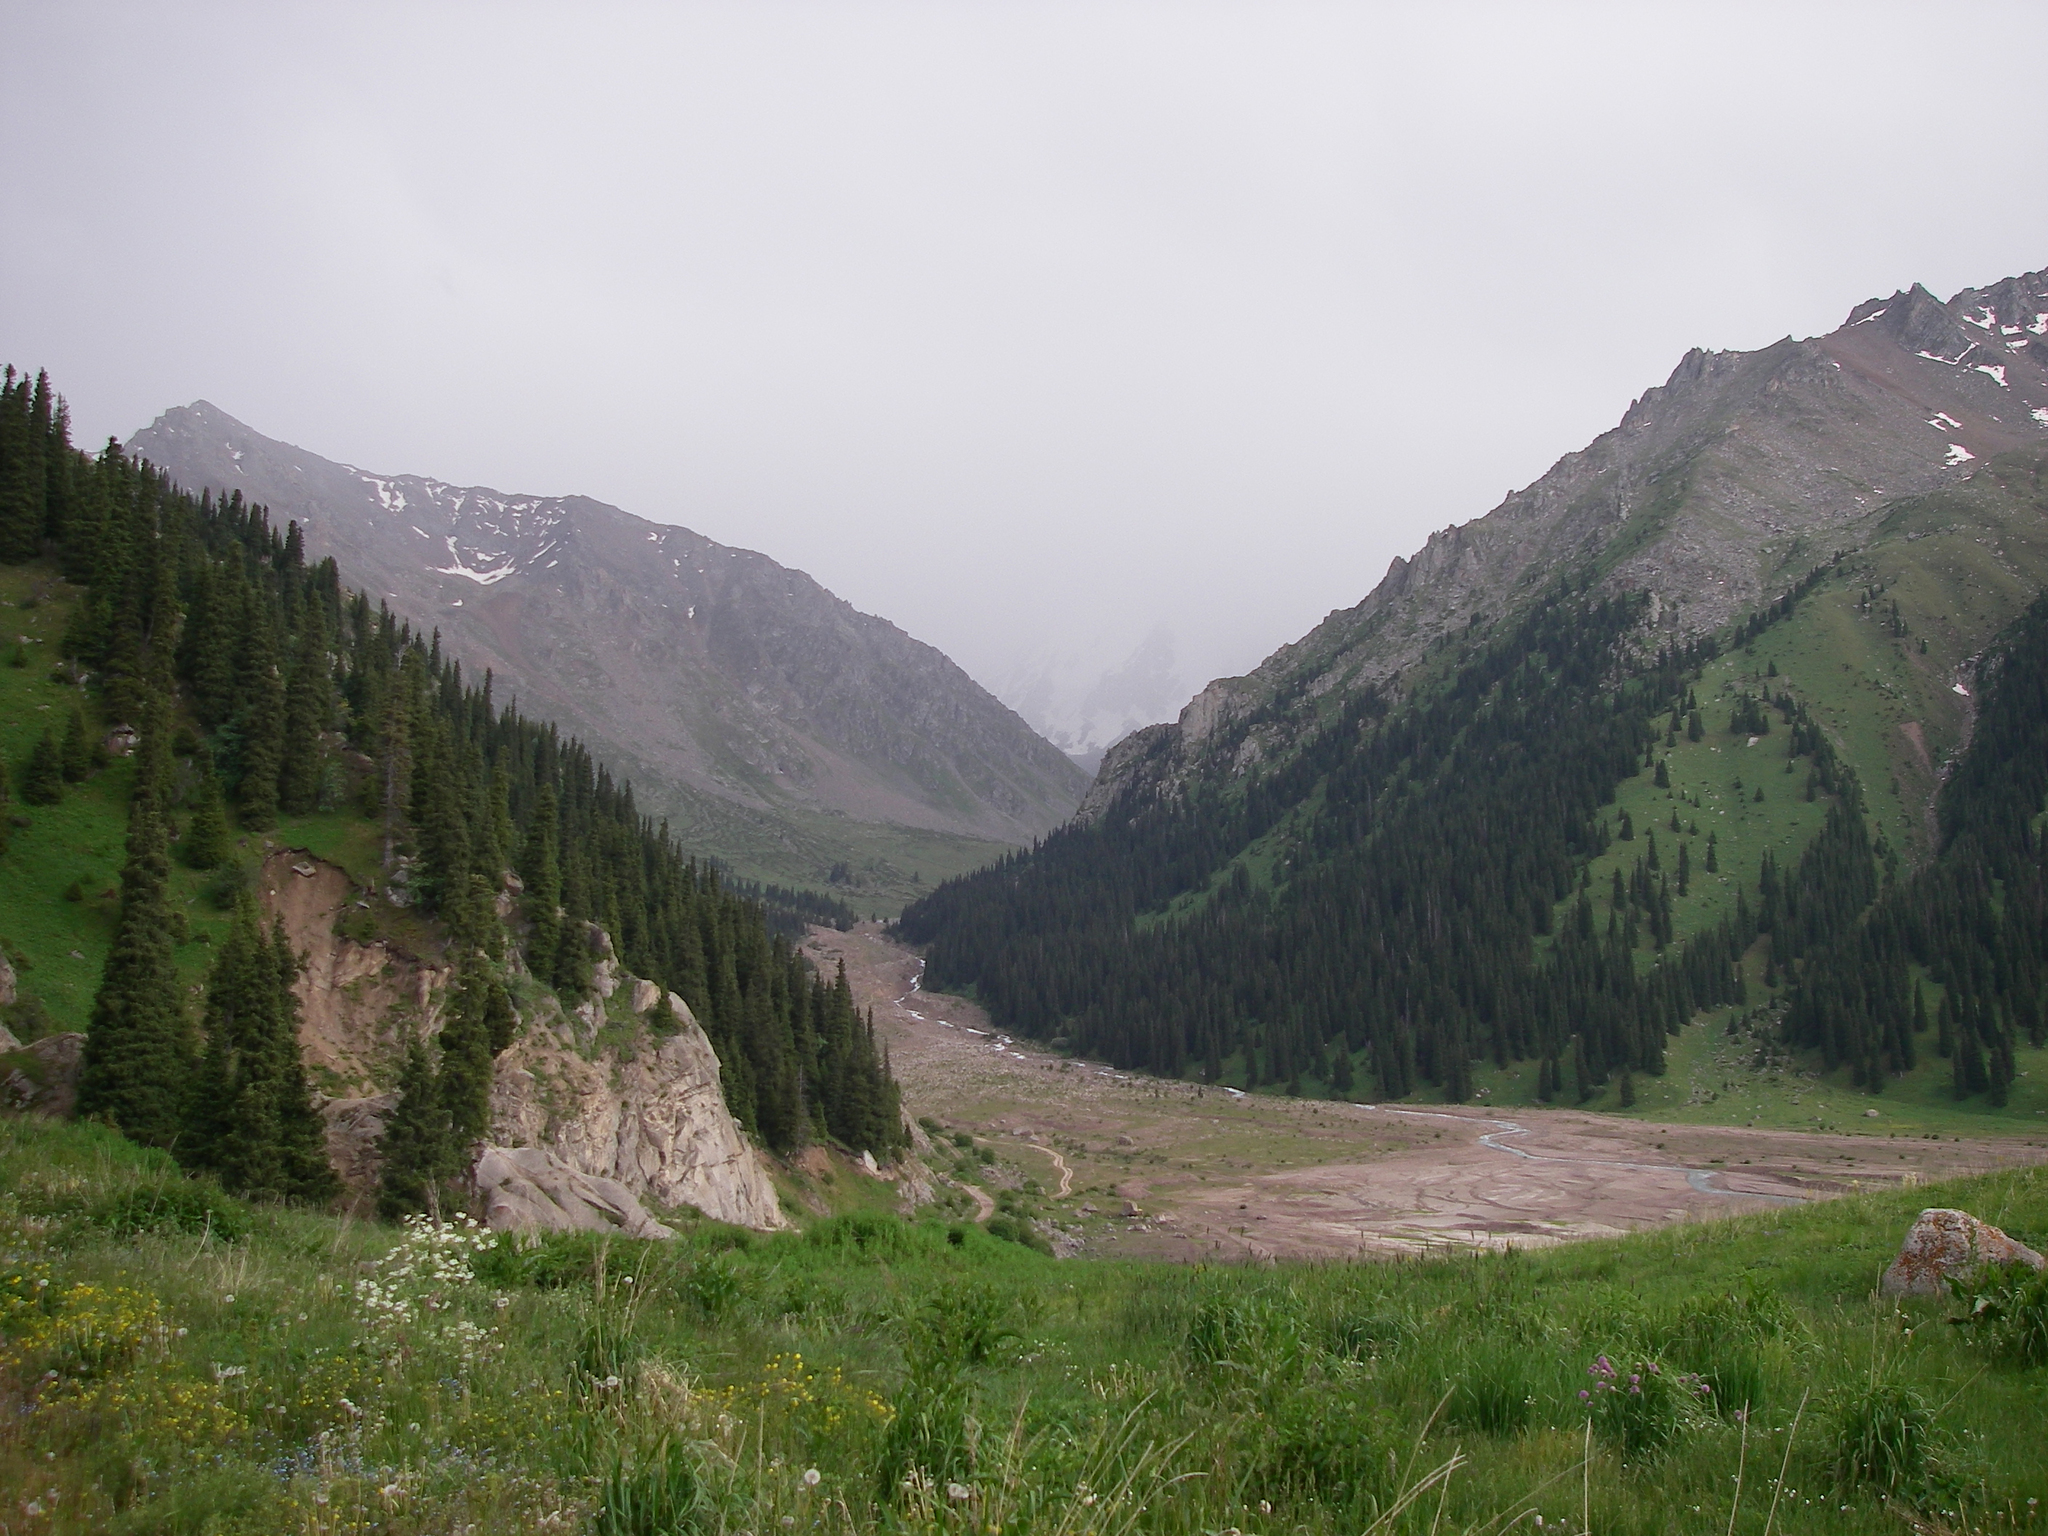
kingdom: Plantae
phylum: Tracheophyta
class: Pinopsida
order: Pinales
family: Pinaceae
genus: Picea
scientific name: Picea schrenkiana
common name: Asian spruce
